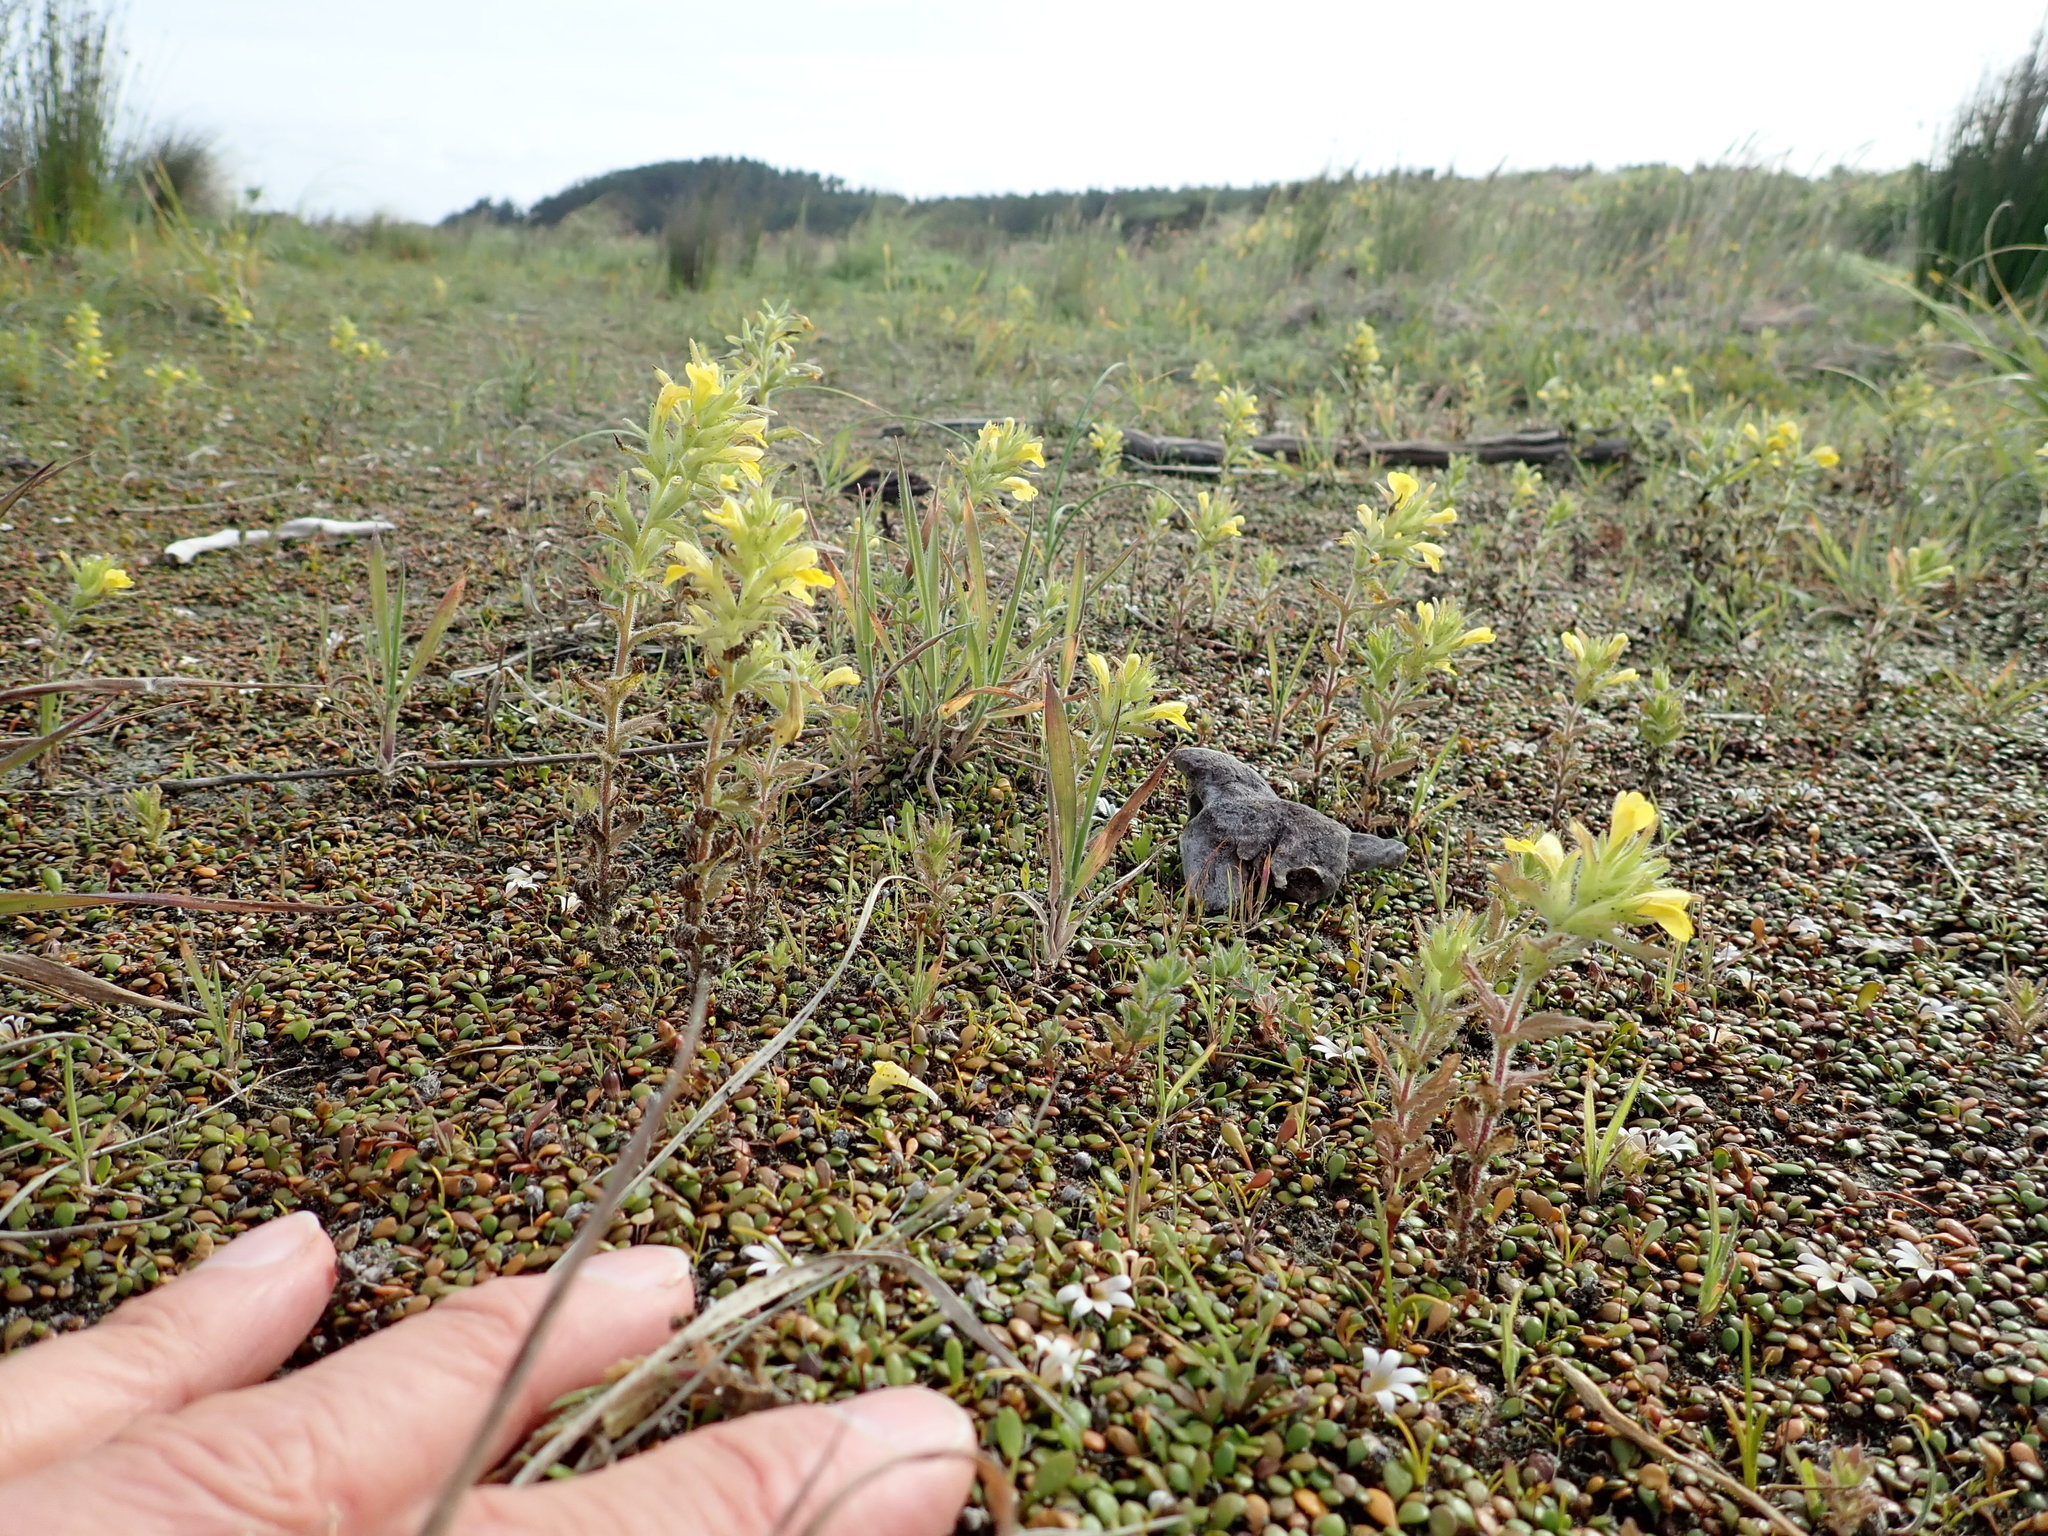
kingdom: Plantae
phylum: Tracheophyta
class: Magnoliopsida
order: Lamiales
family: Orobanchaceae
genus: Bellardia
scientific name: Bellardia viscosa
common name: Sticky parentucellia
